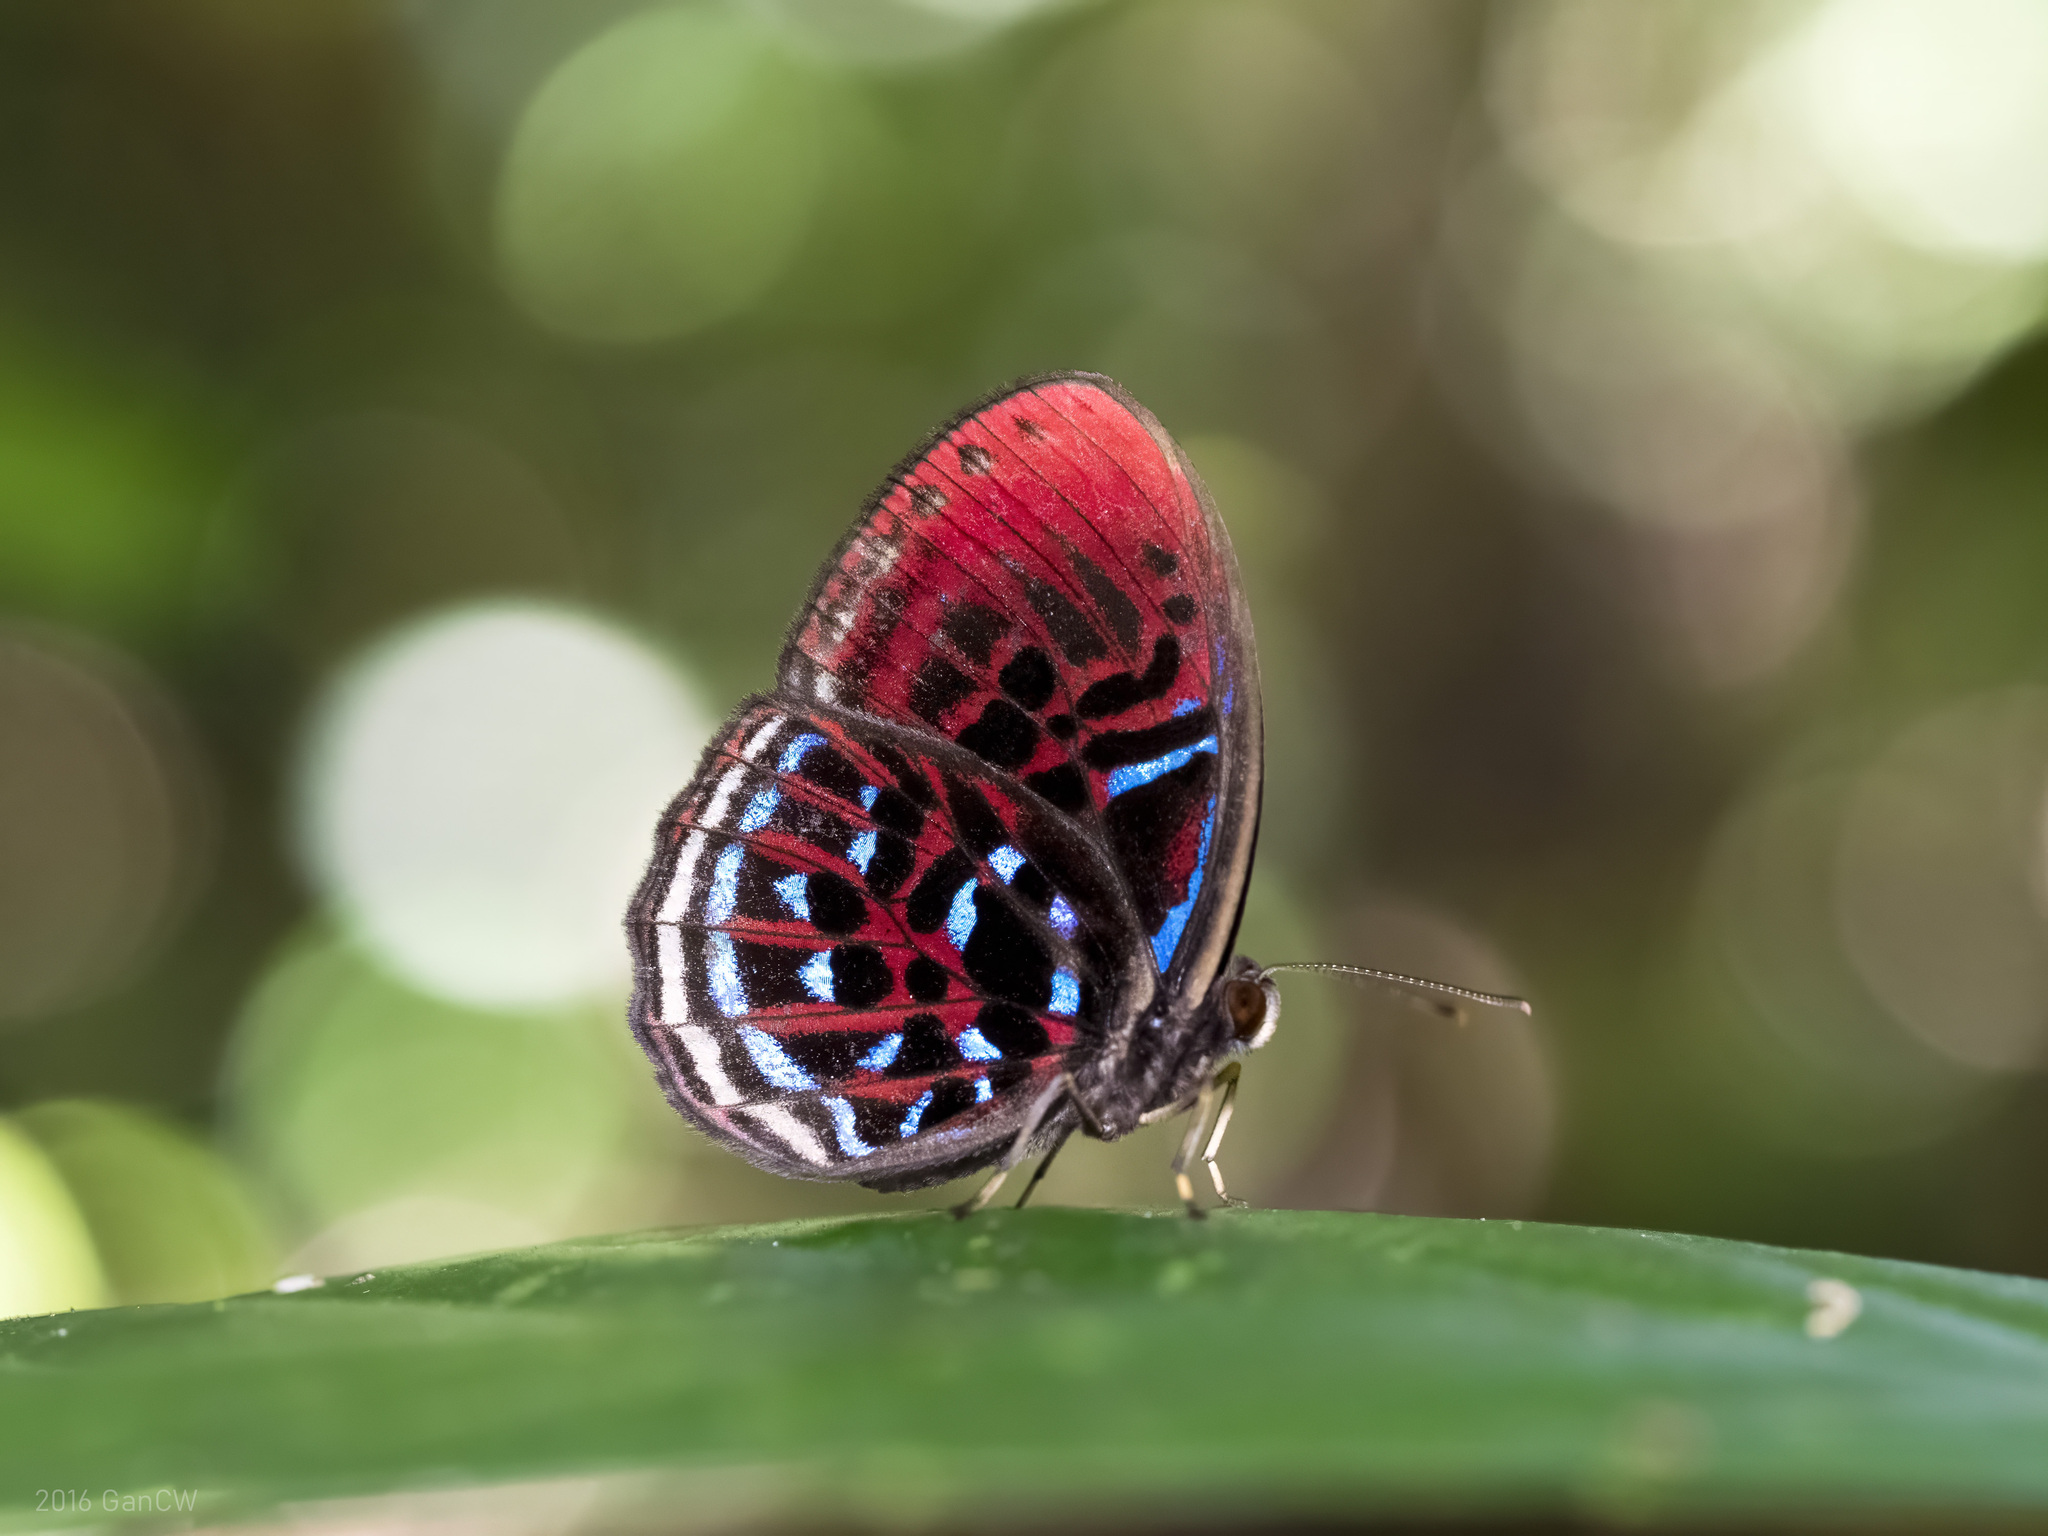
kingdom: Animalia
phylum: Arthropoda
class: Insecta
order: Lepidoptera
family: Riodinidae
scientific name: Riodinidae
